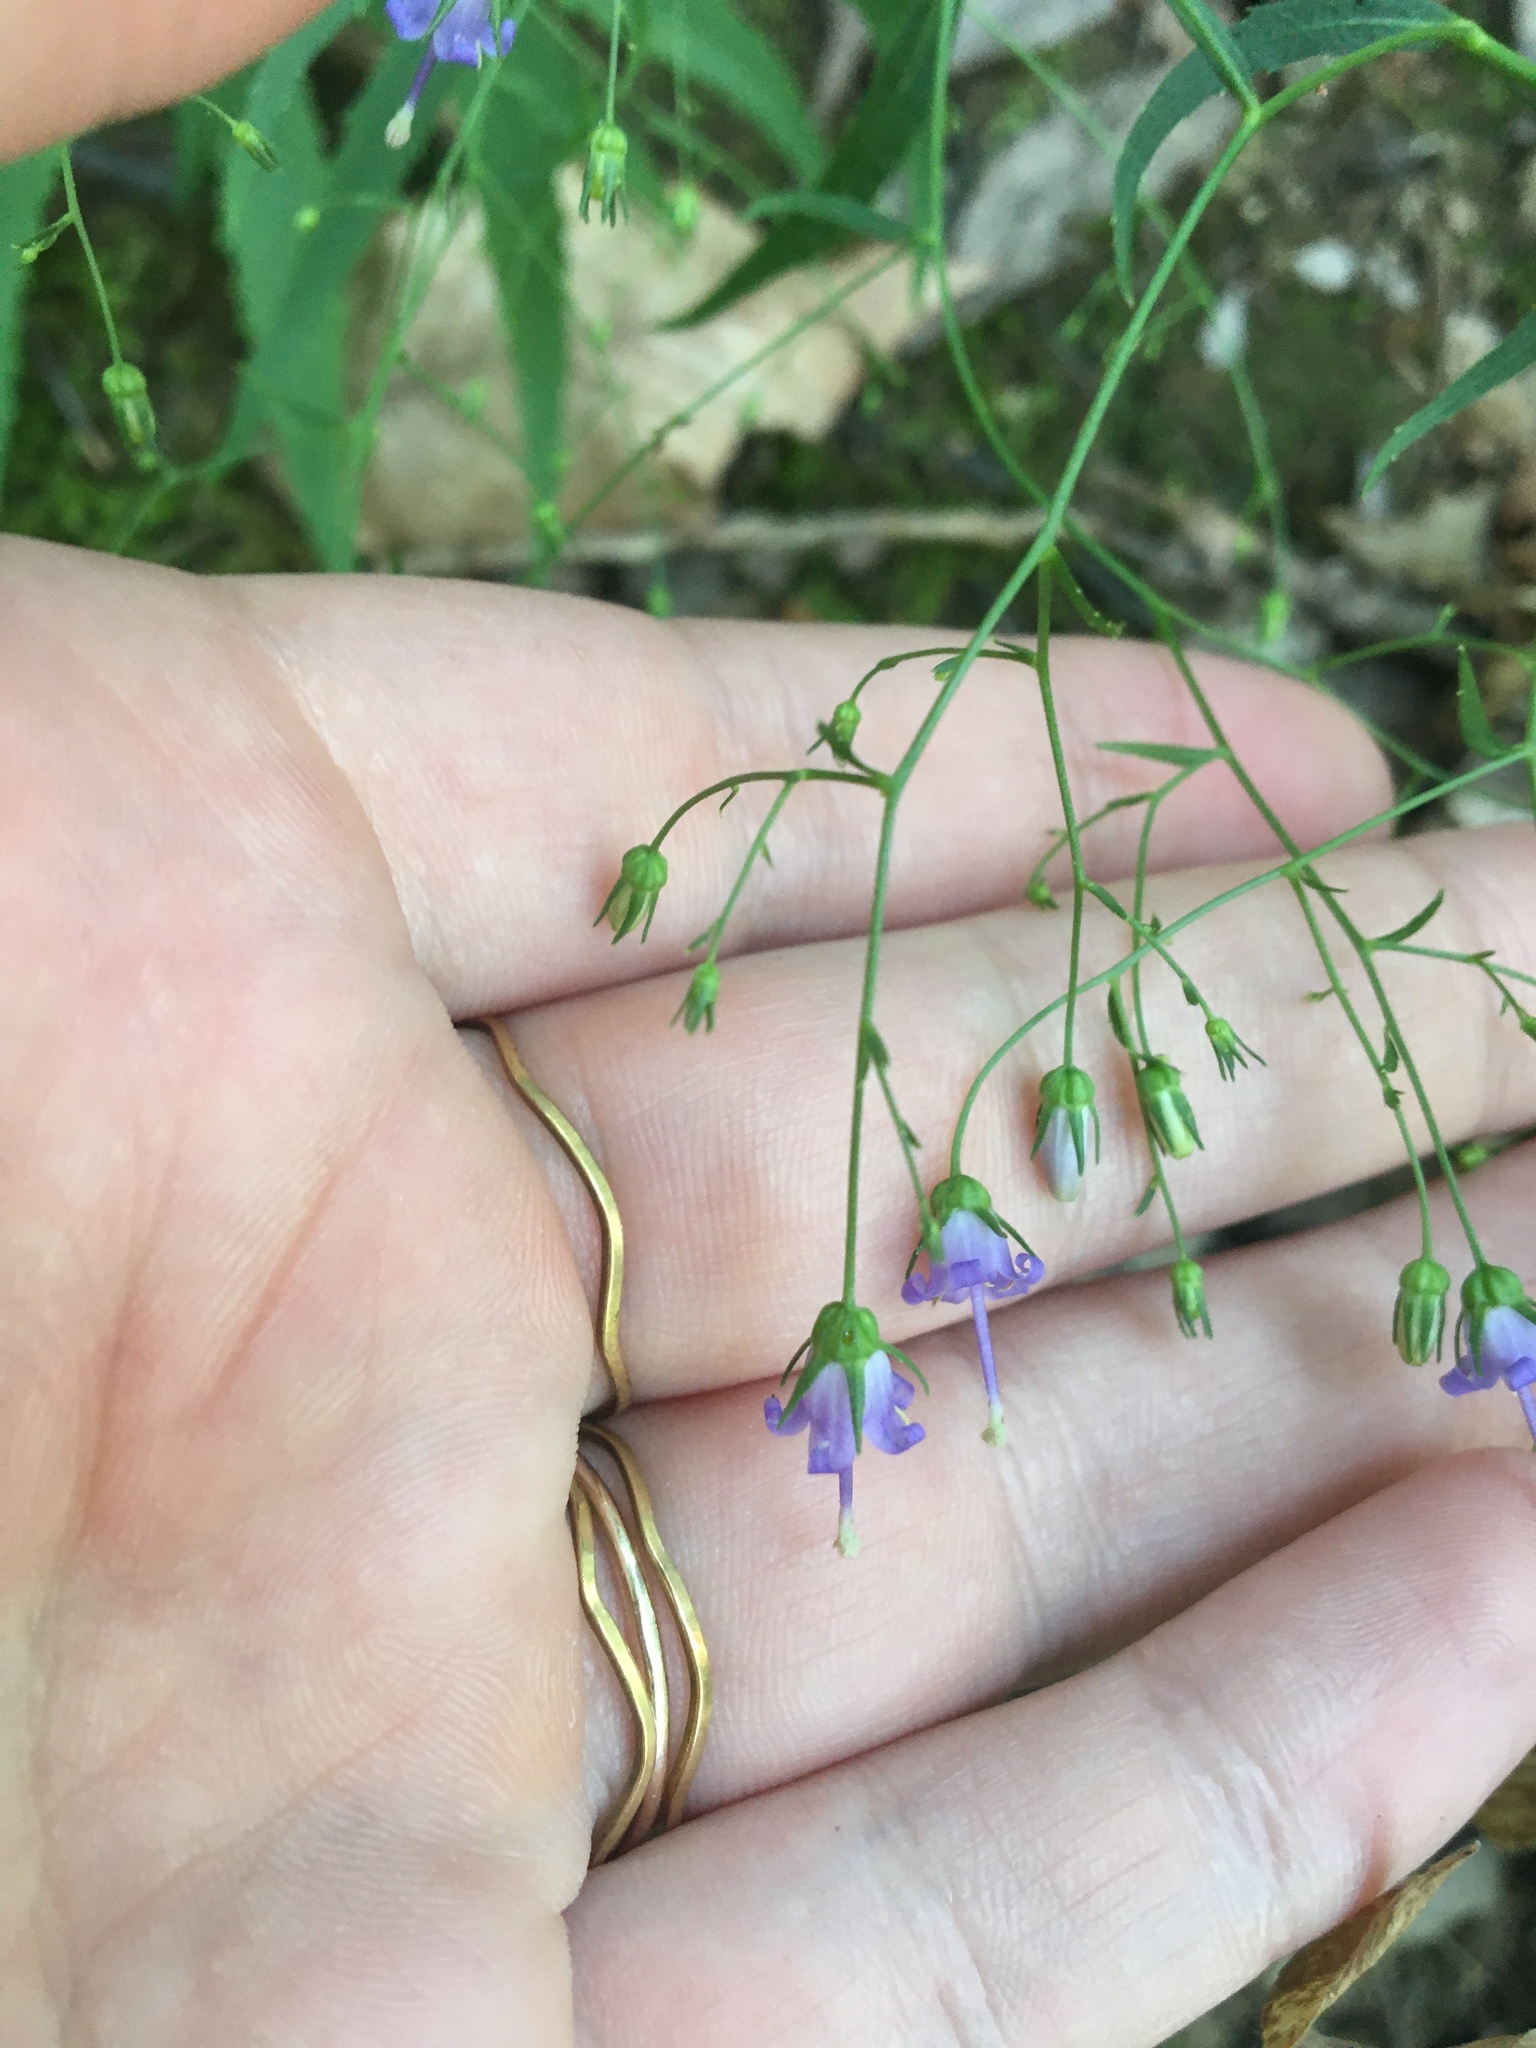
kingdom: Plantae
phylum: Tracheophyta
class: Magnoliopsida
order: Asterales
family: Campanulaceae
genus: Campanula
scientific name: Campanula divaricata
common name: Appalachian bellflower
